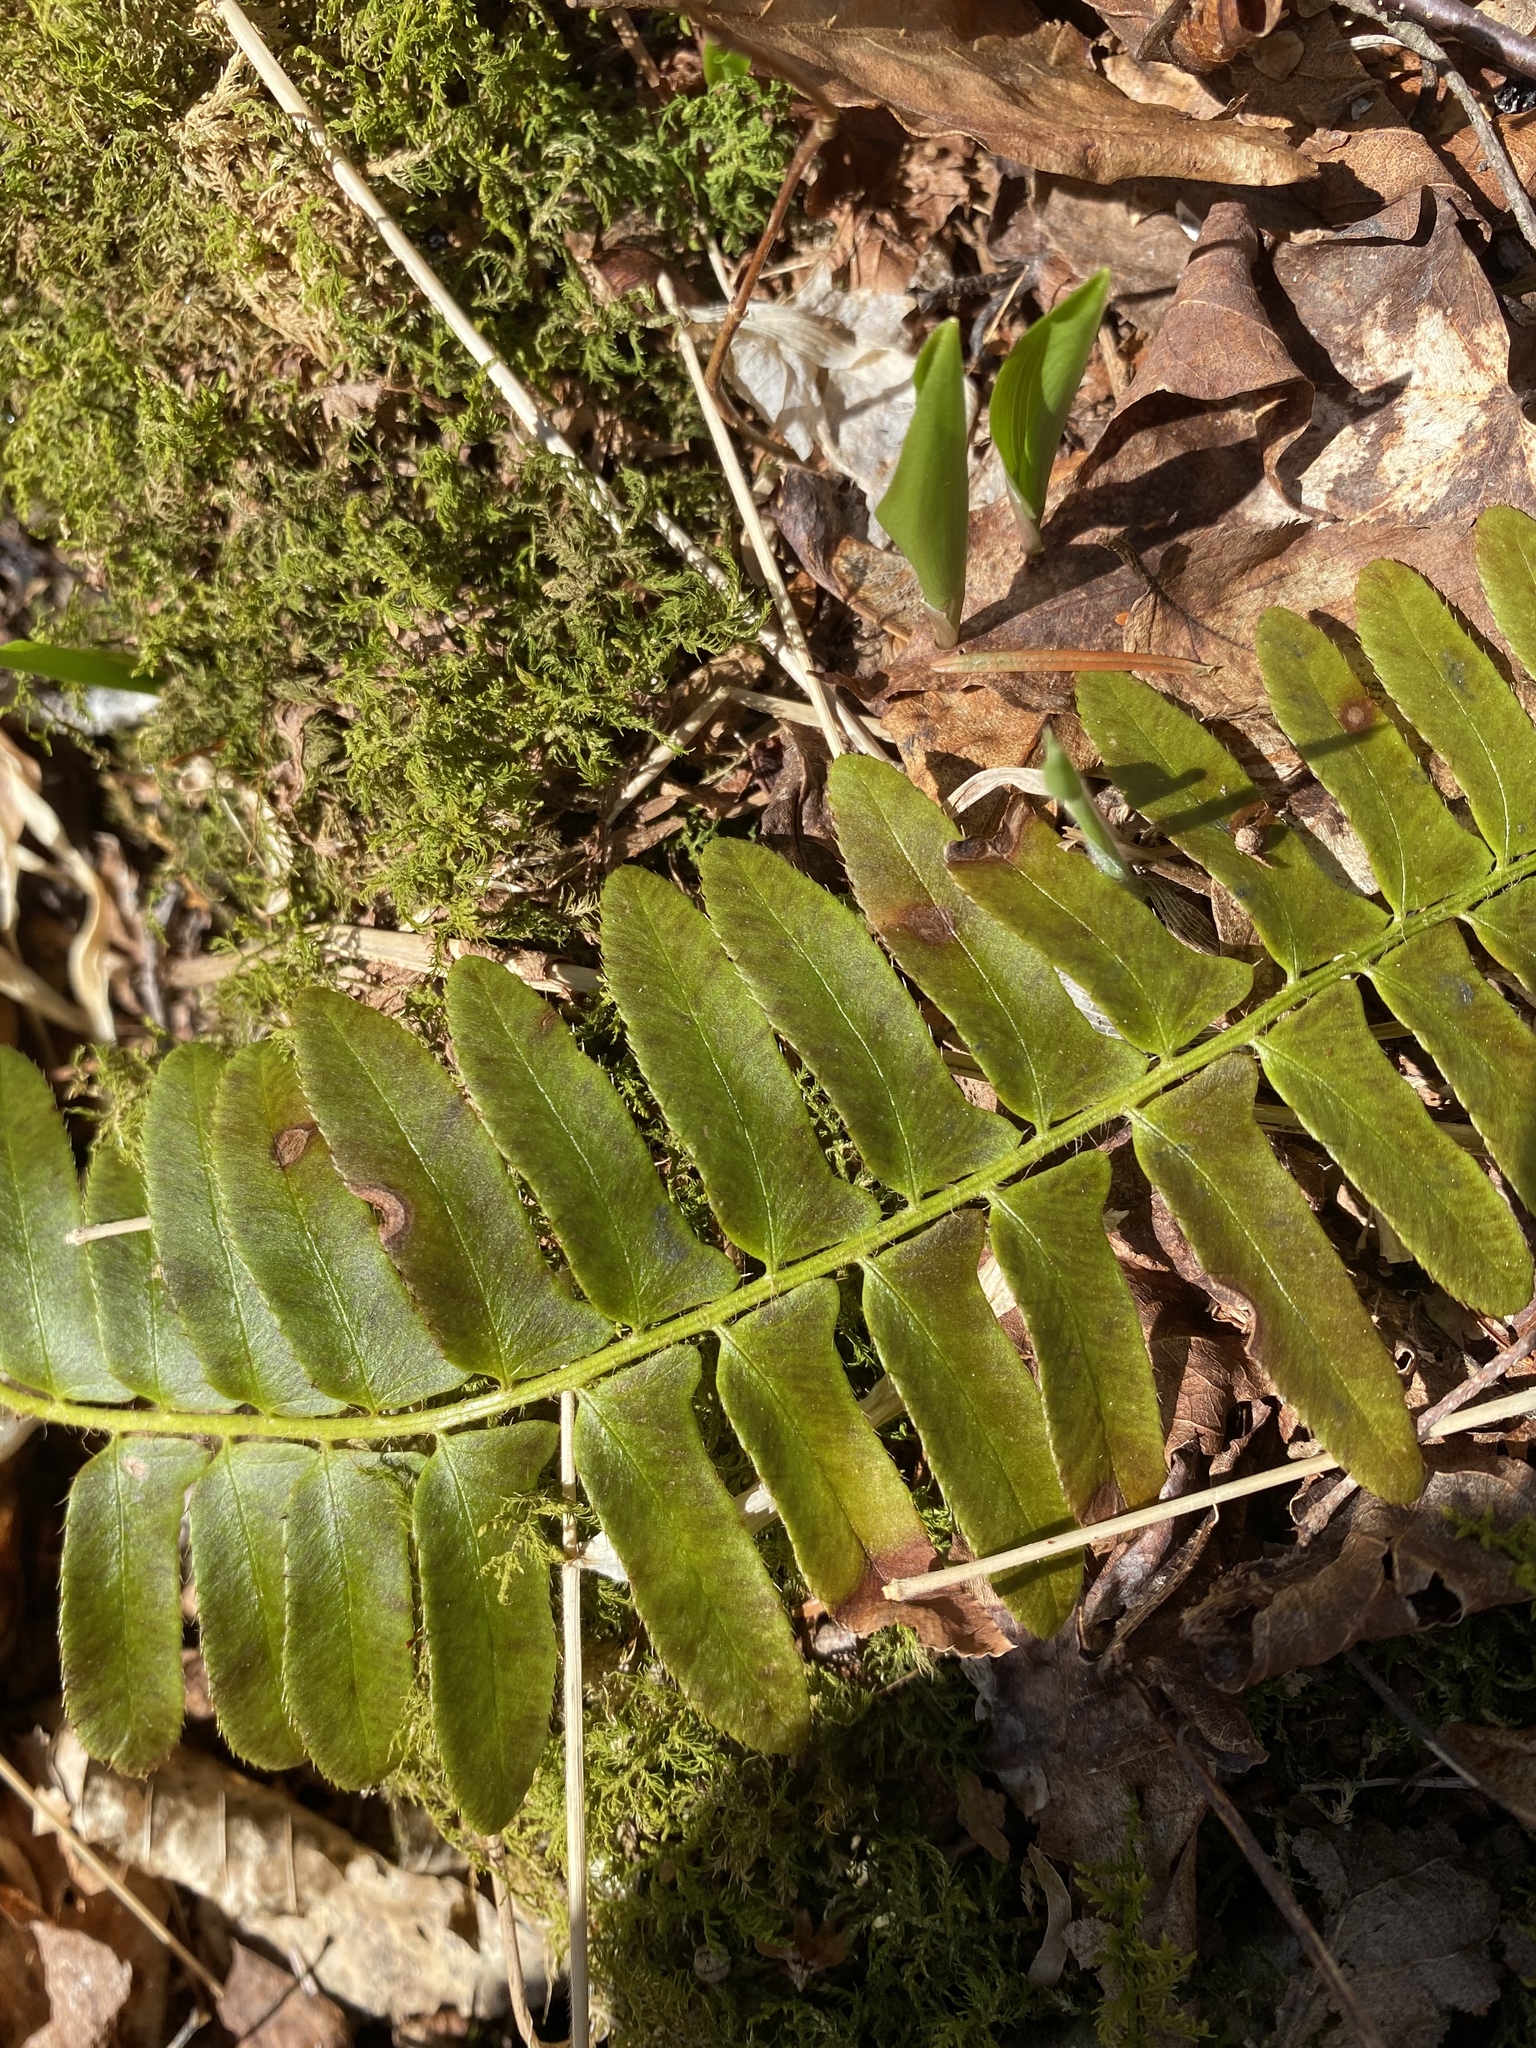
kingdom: Plantae
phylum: Tracheophyta
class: Polypodiopsida
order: Polypodiales
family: Dryopteridaceae
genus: Polystichum
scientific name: Polystichum acrostichoides
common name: Christmas fern
